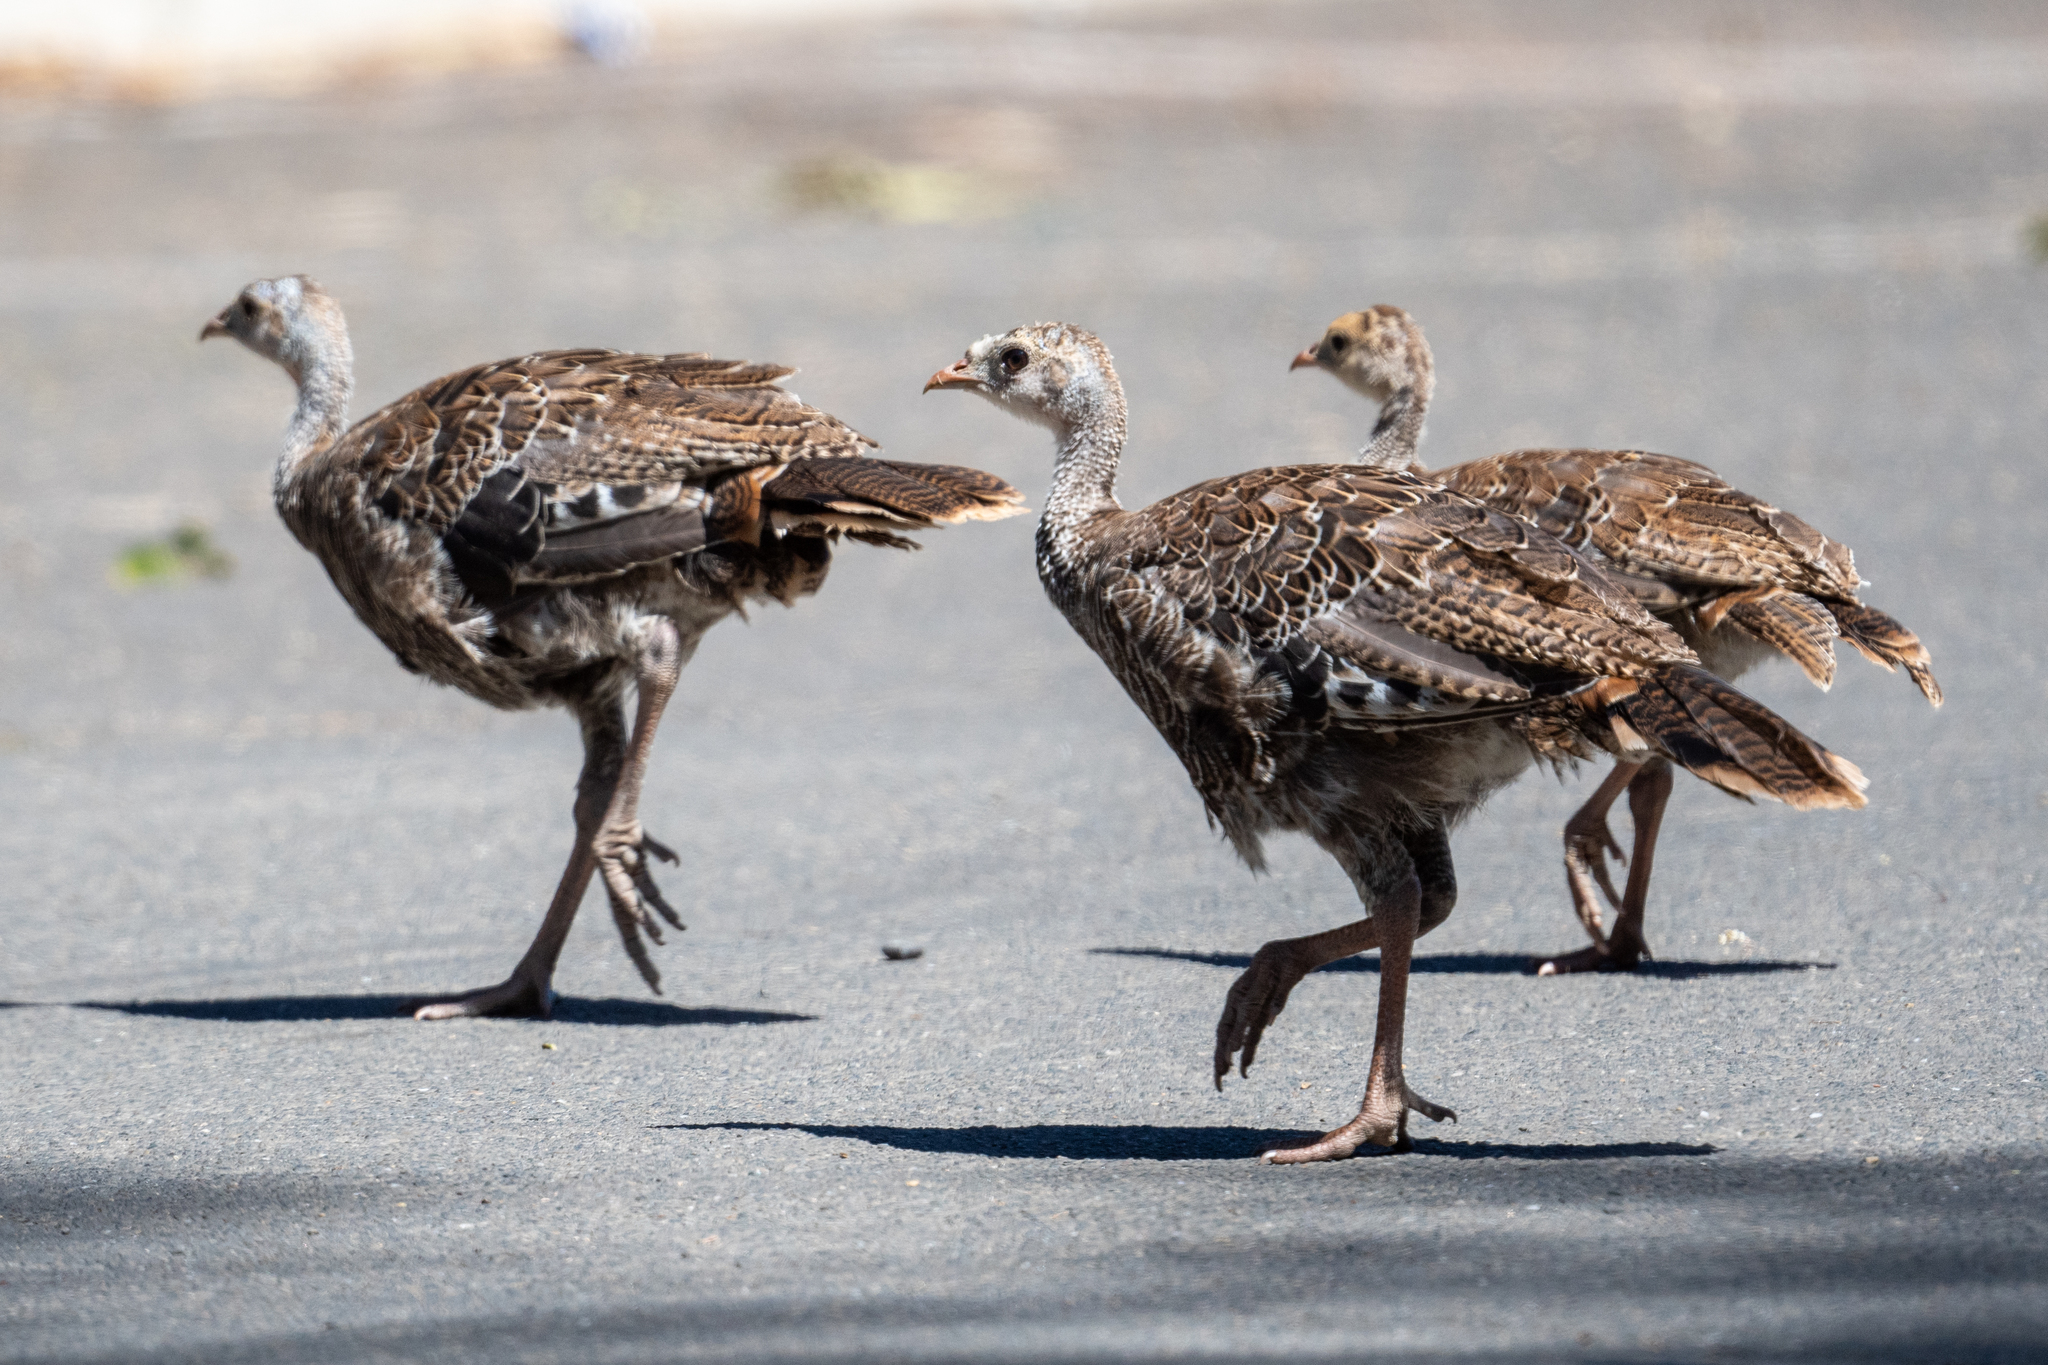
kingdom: Animalia
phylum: Chordata
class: Aves
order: Galliformes
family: Phasianidae
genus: Meleagris
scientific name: Meleagris gallopavo
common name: Wild turkey
